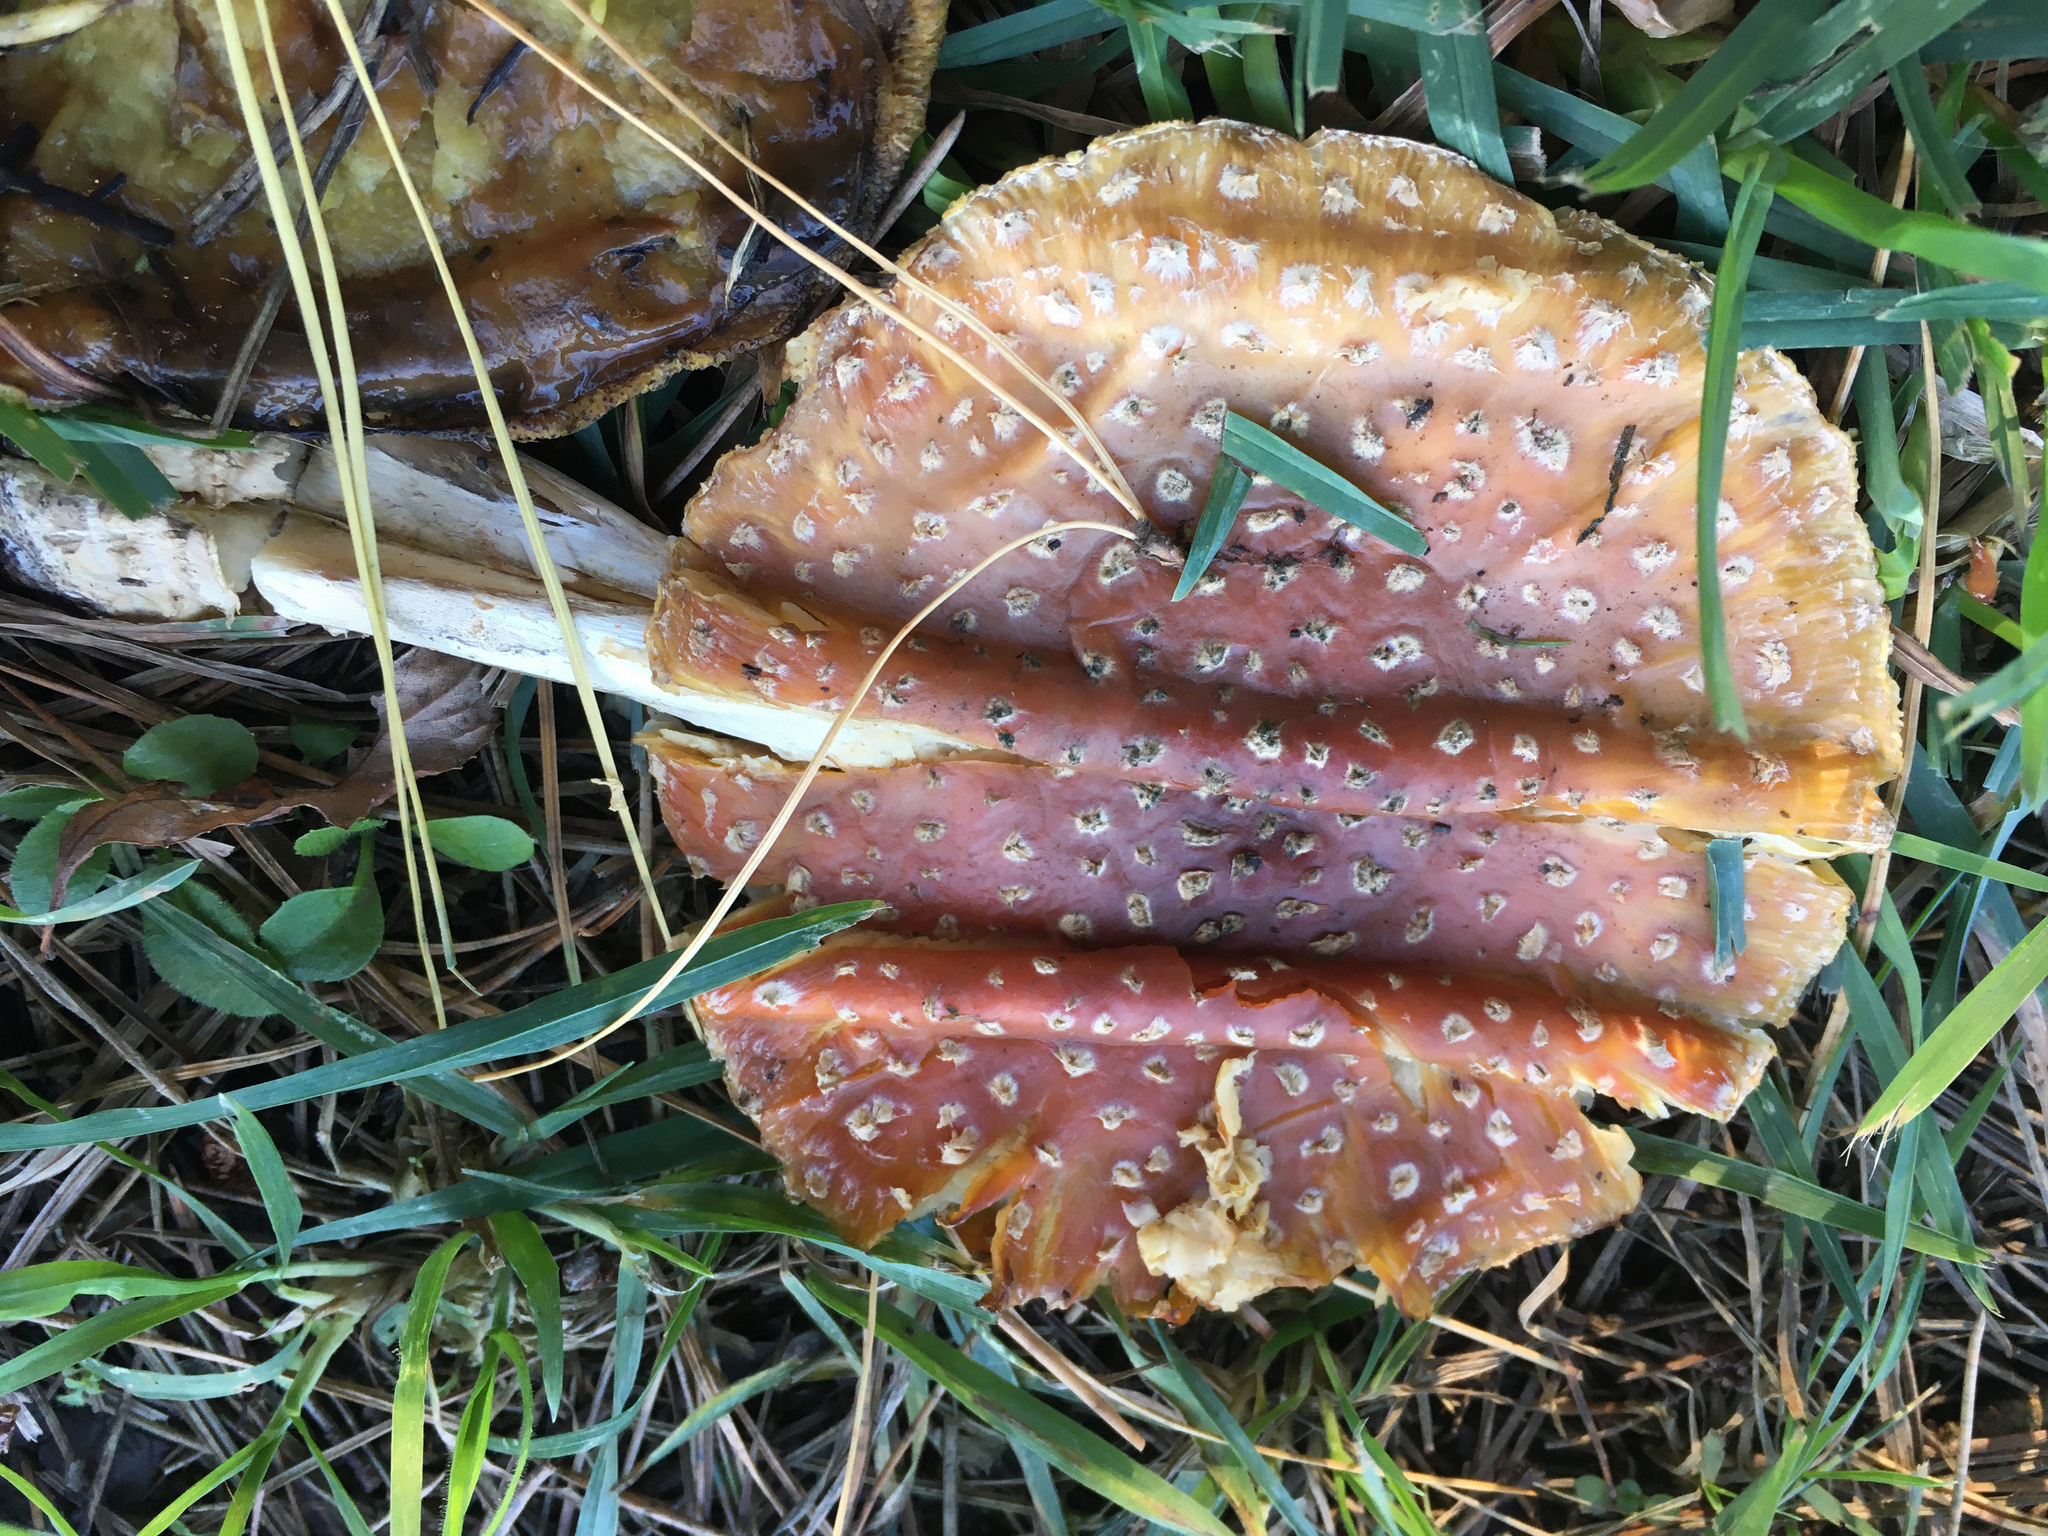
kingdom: Fungi
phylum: Basidiomycota
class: Agaricomycetes
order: Agaricales
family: Amanitaceae
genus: Amanita
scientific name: Amanita muscaria
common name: Fly agaric
